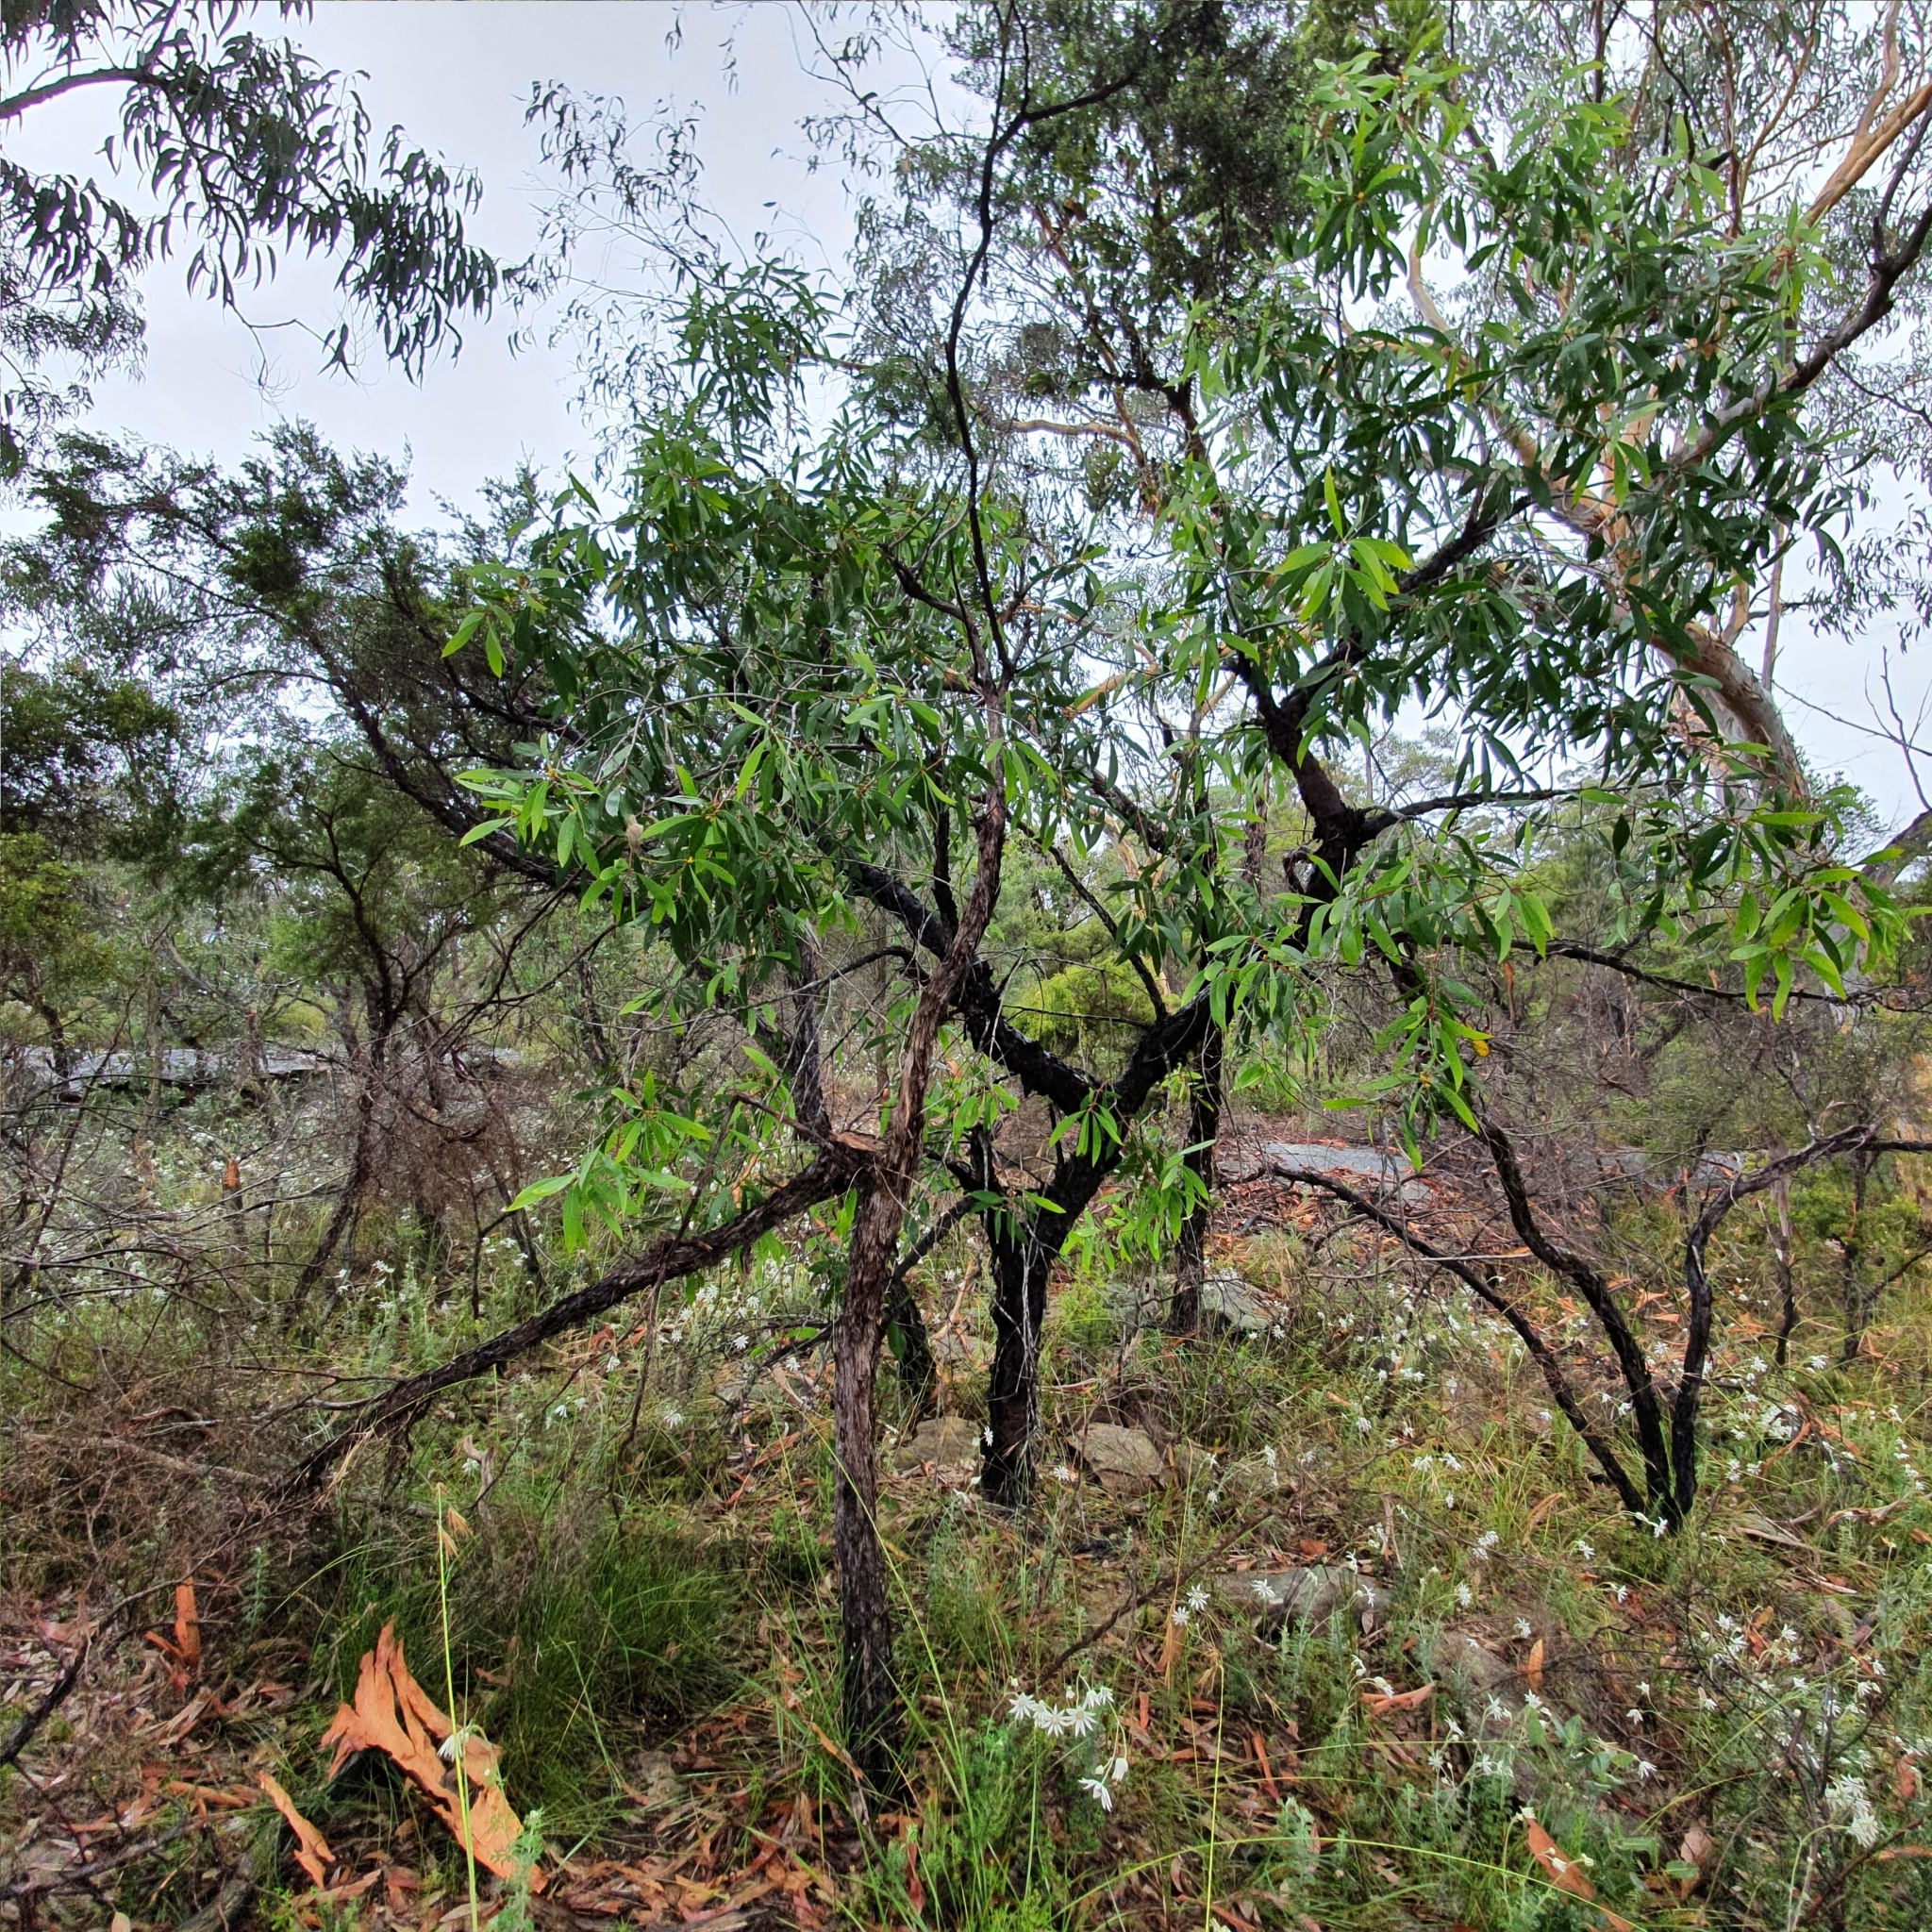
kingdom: Plantae
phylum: Tracheophyta
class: Magnoliopsida
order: Proteales
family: Proteaceae
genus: Persoonia
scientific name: Persoonia levis
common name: Smooth geebung
